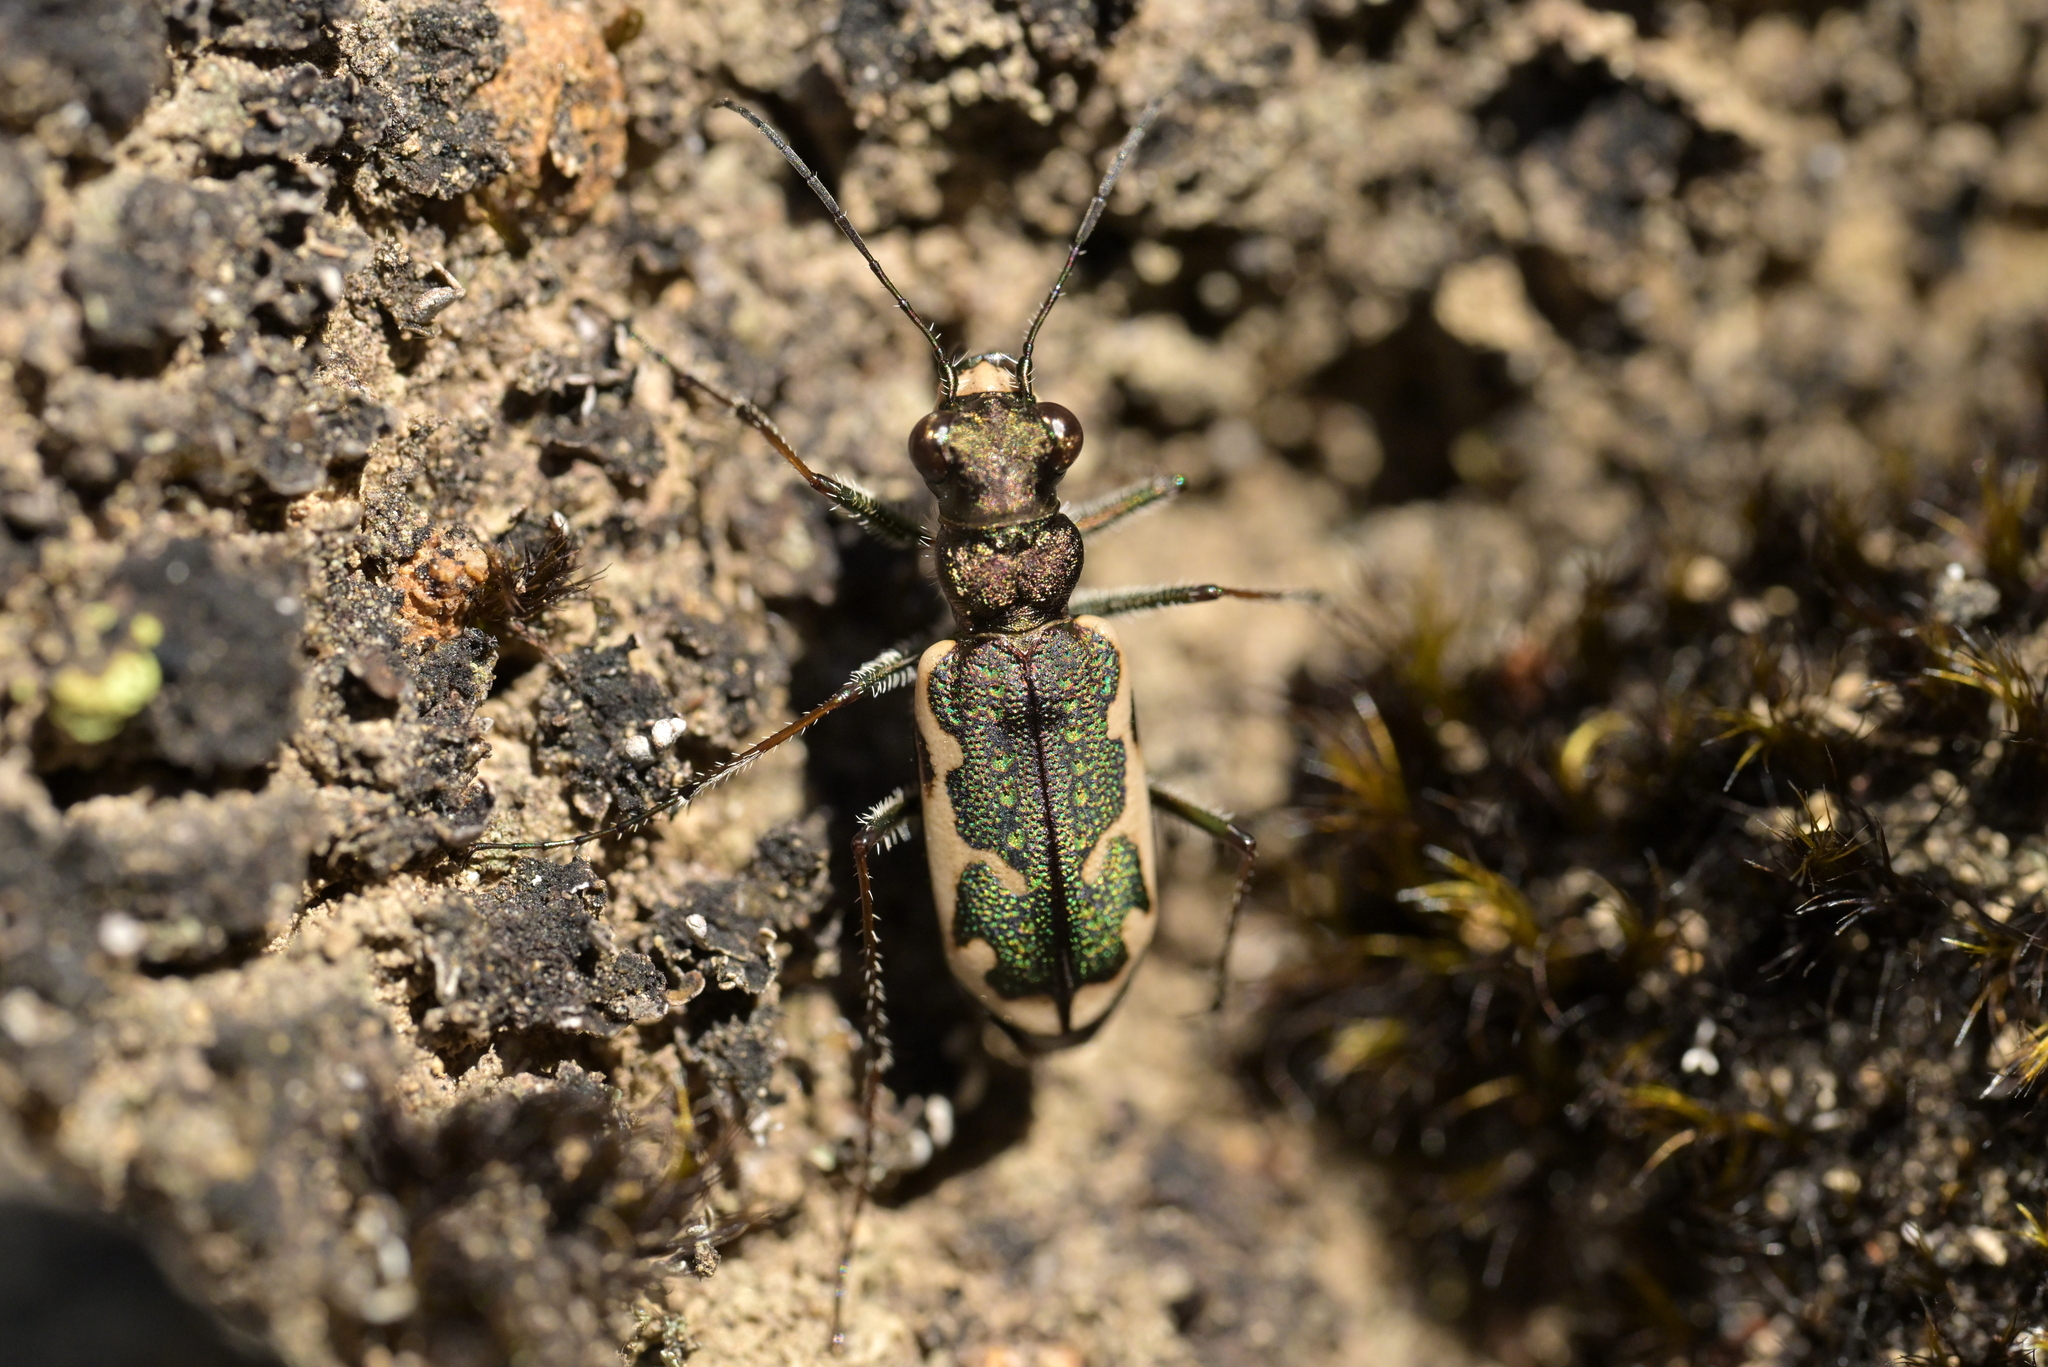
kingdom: Animalia
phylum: Arthropoda
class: Insecta
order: Coleoptera
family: Carabidae
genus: Neocicindela
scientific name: Neocicindela tuberculata
